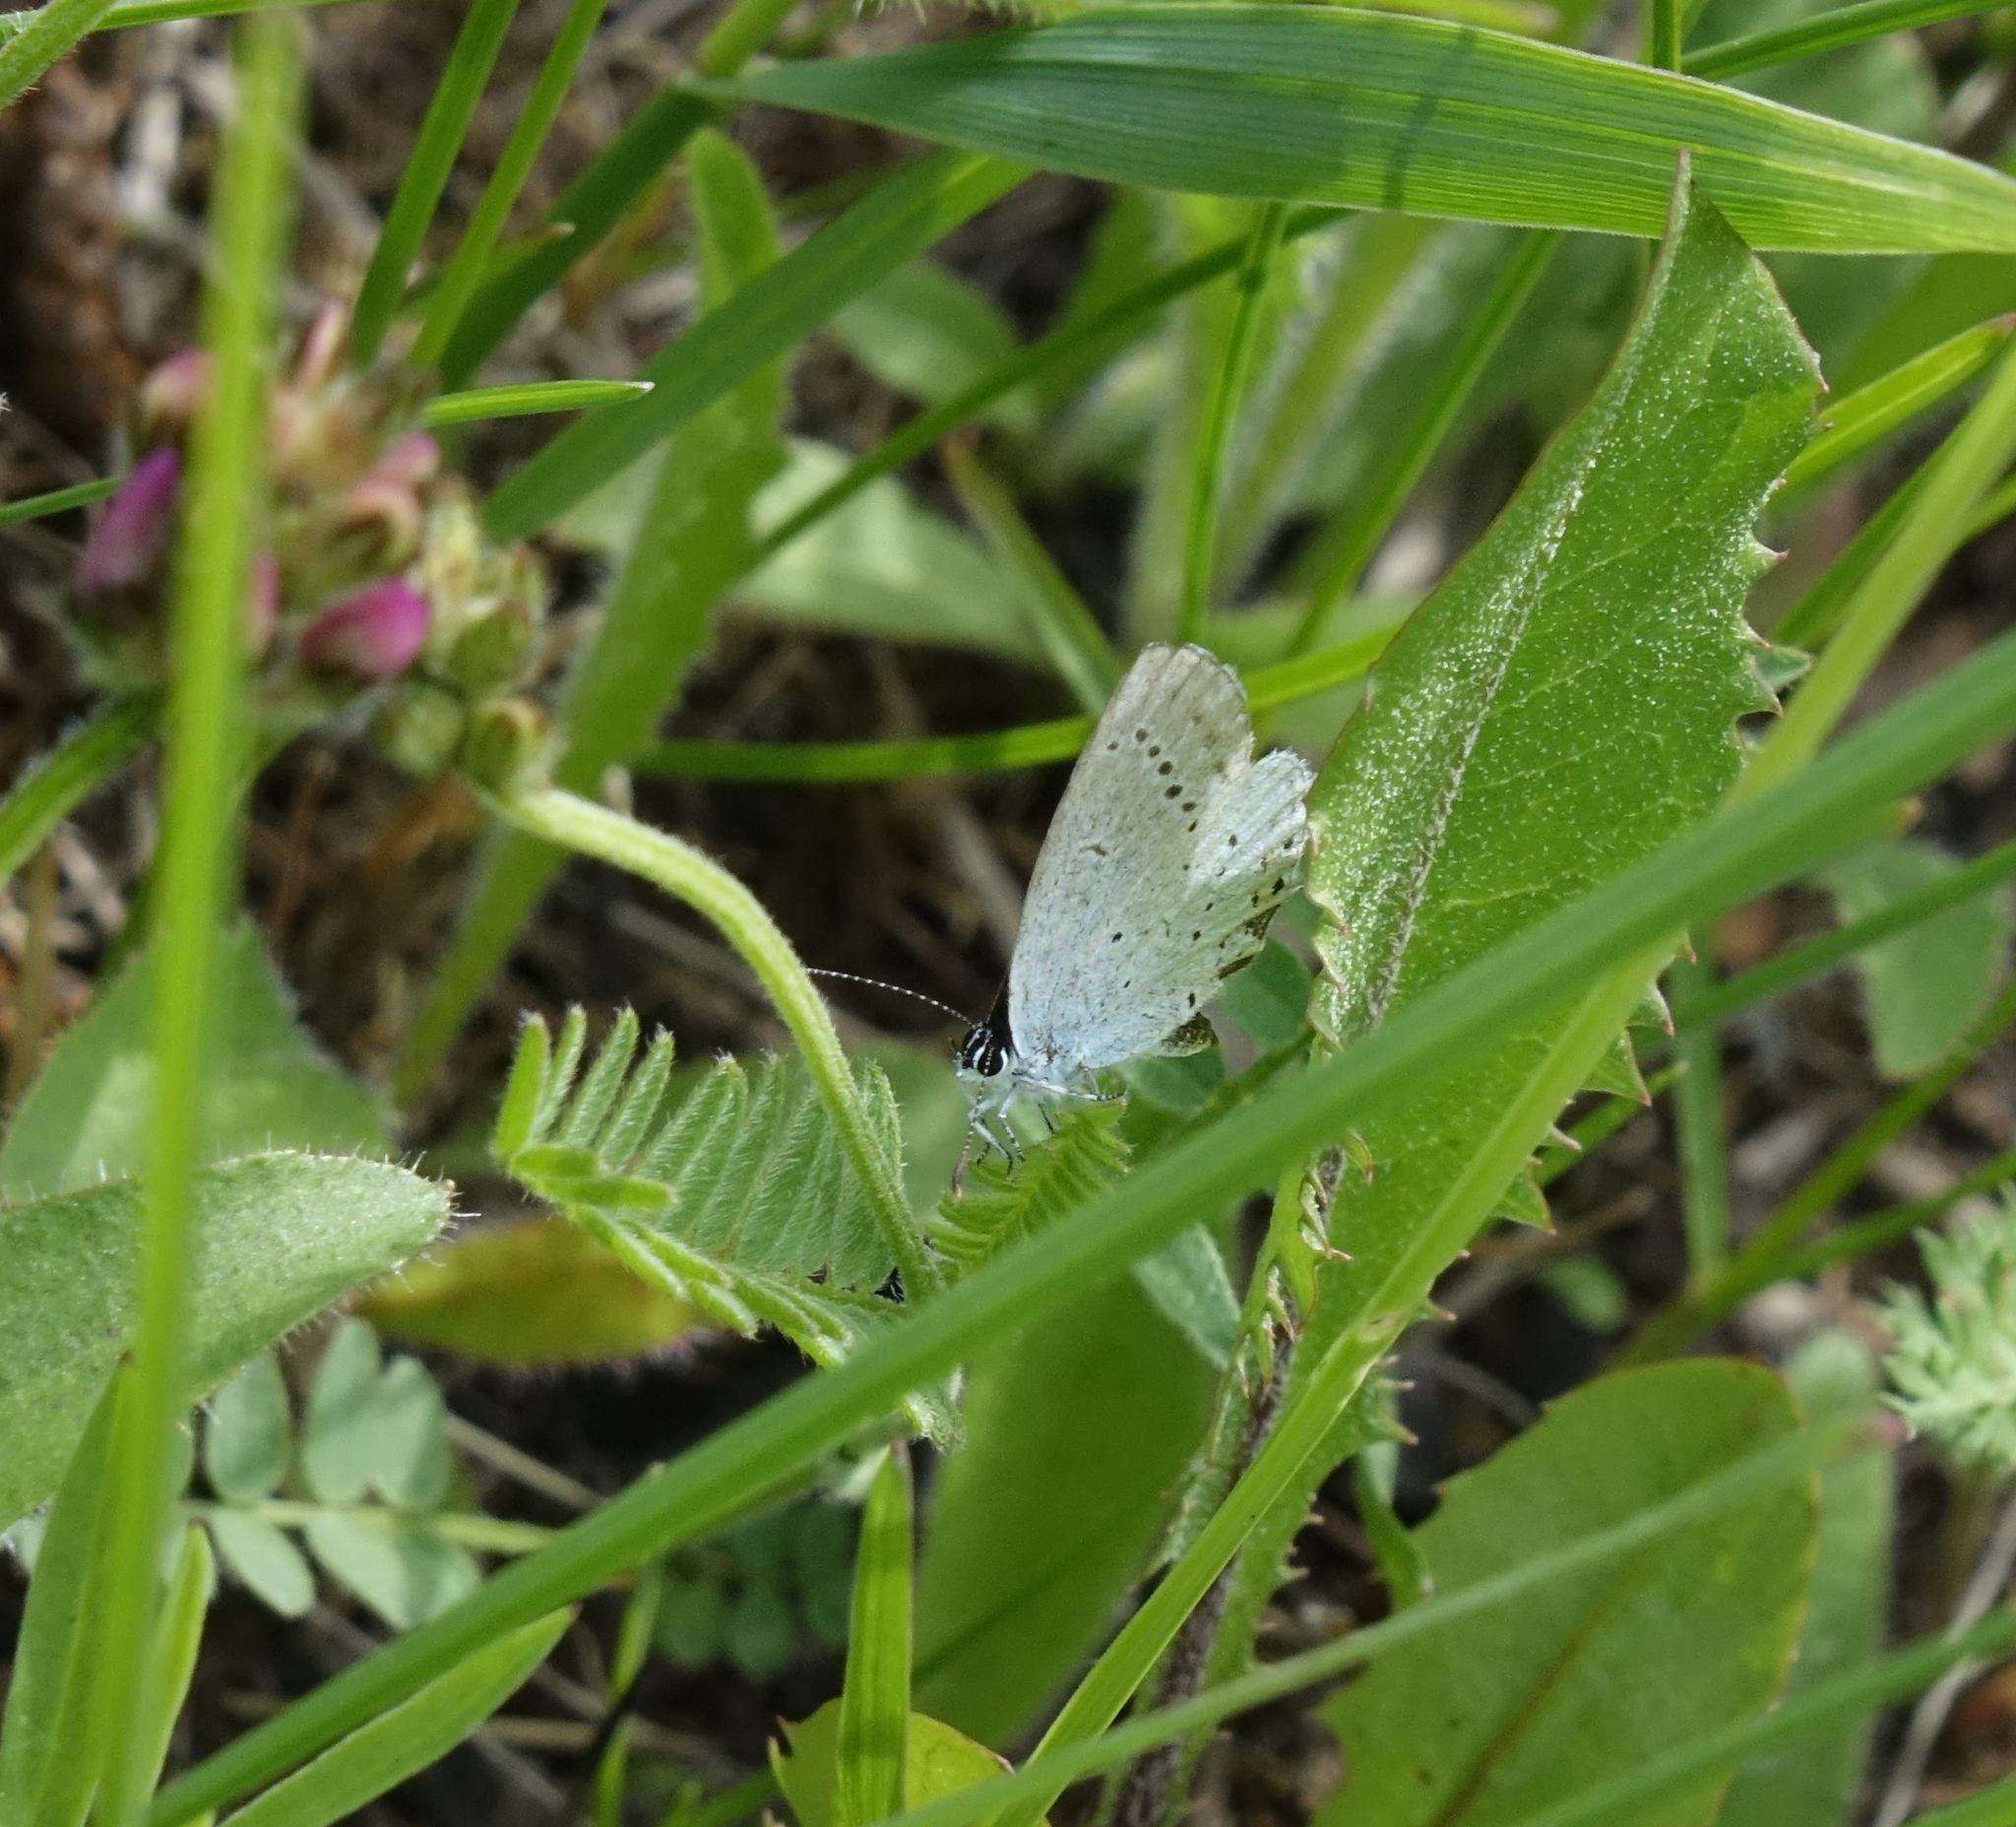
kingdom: Animalia
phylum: Arthropoda
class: Insecta
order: Lepidoptera
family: Lycaenidae
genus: Elkalyce
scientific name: Elkalyce argiades
